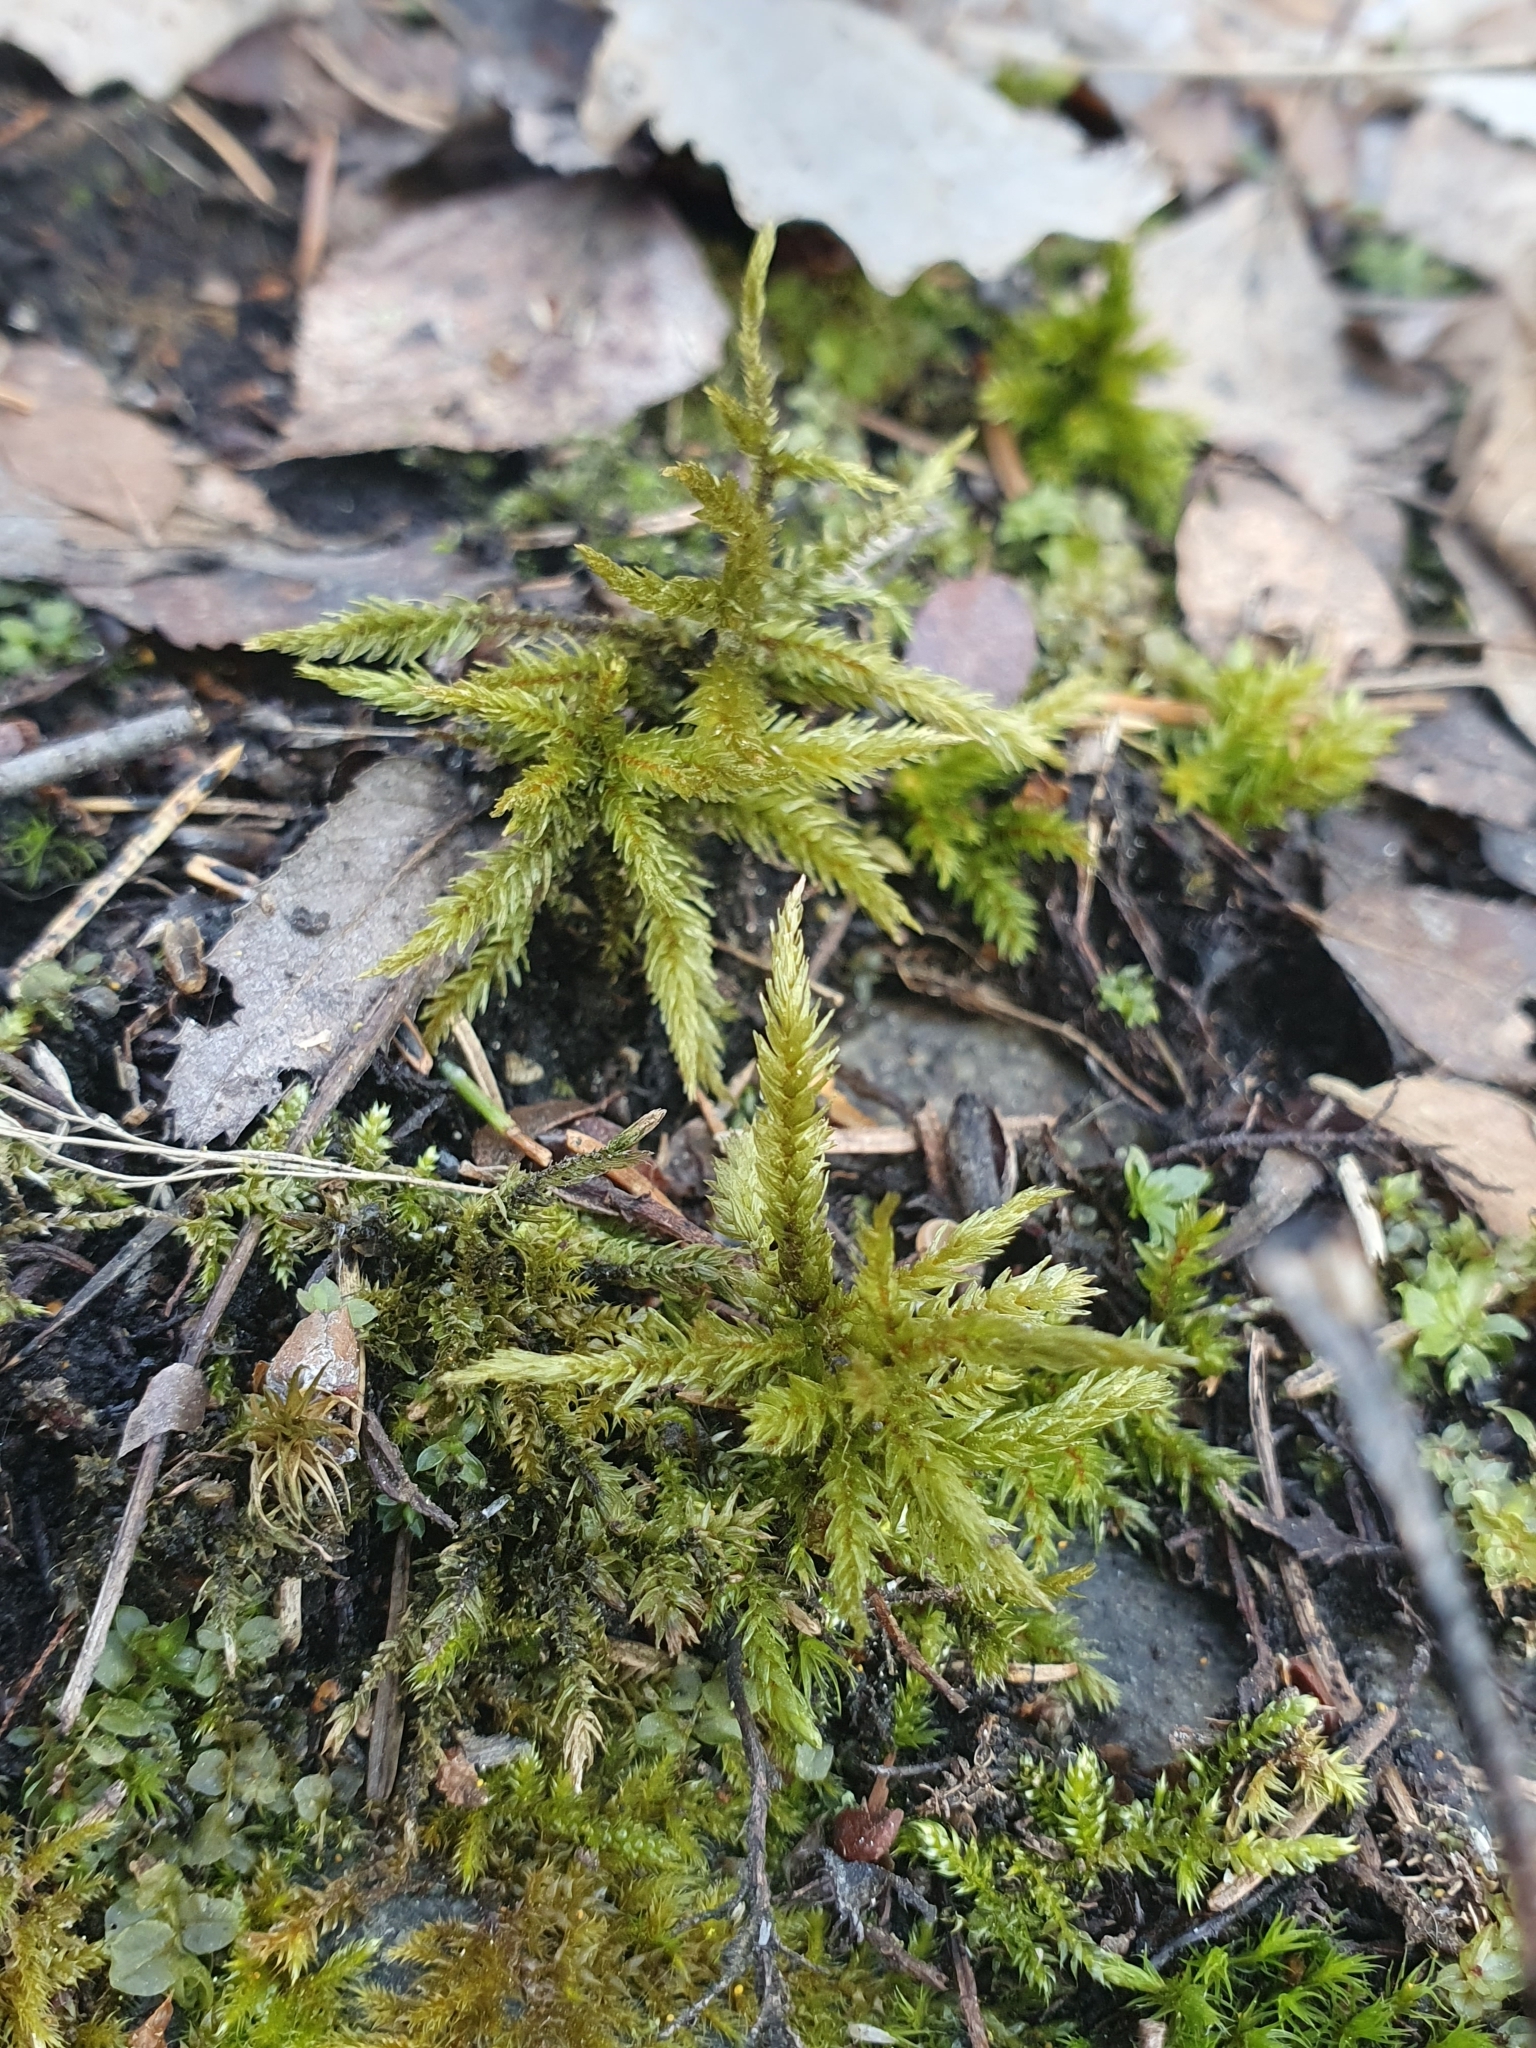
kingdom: Plantae
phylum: Bryophyta
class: Bryopsida
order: Hypnales
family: Climaciaceae
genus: Climacium
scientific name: Climacium dendroides
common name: Northern tree moss
